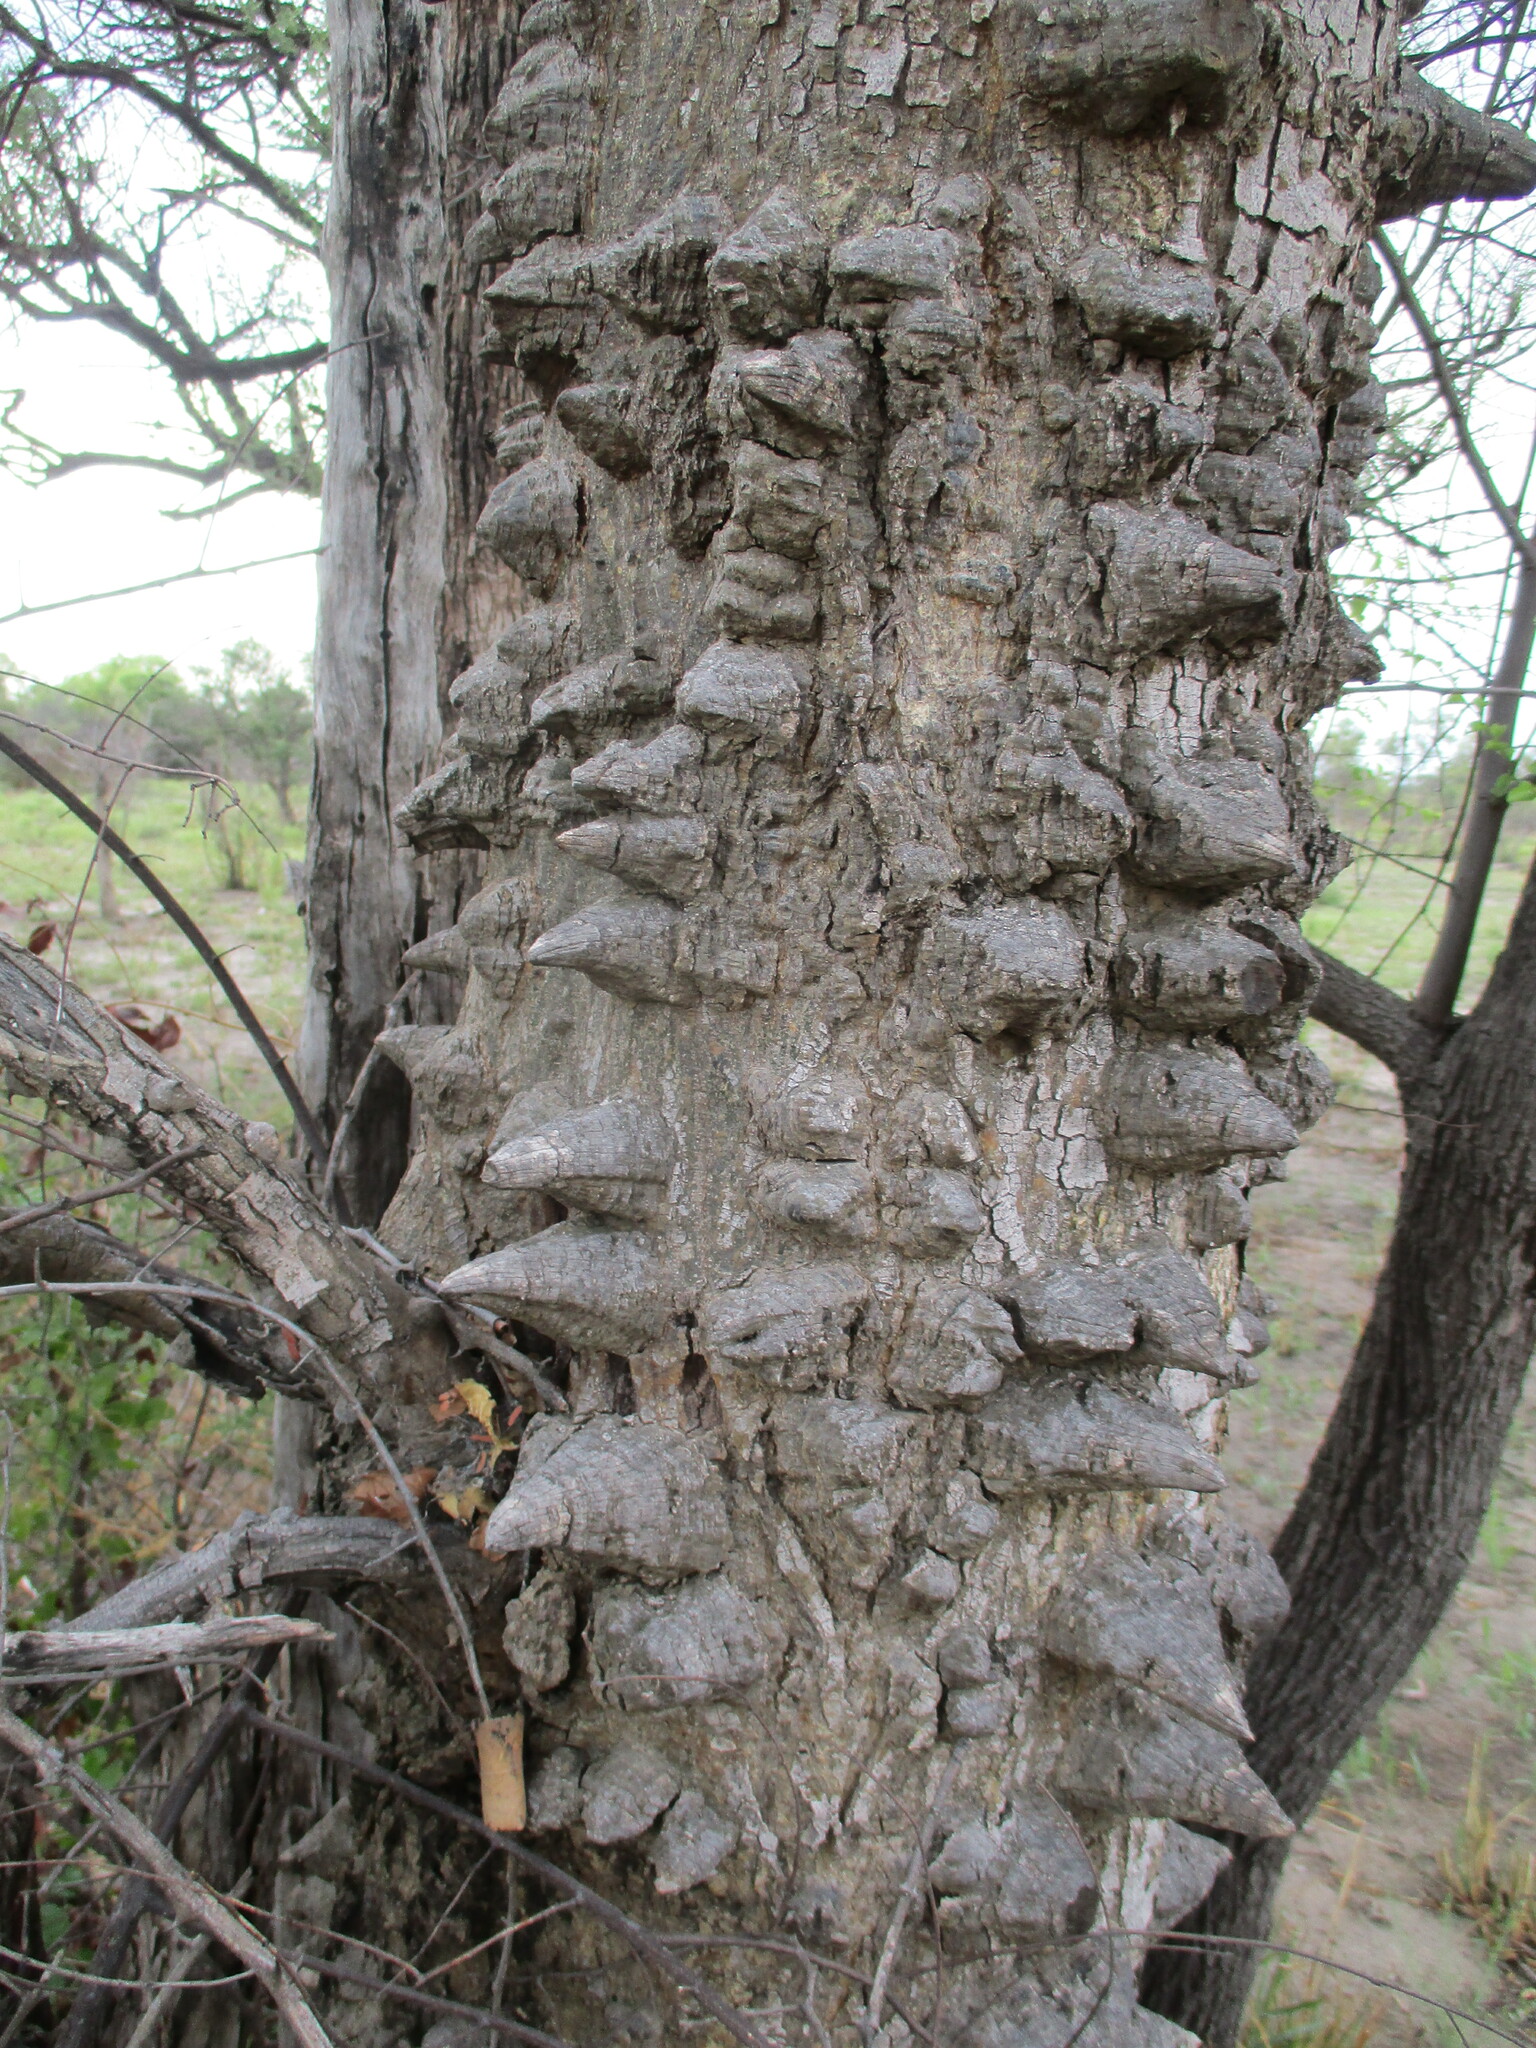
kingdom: Plantae
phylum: Tracheophyta
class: Magnoliopsida
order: Fabales
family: Fabaceae
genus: Senegalia
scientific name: Senegalia nigrescens
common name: Knobthorn
